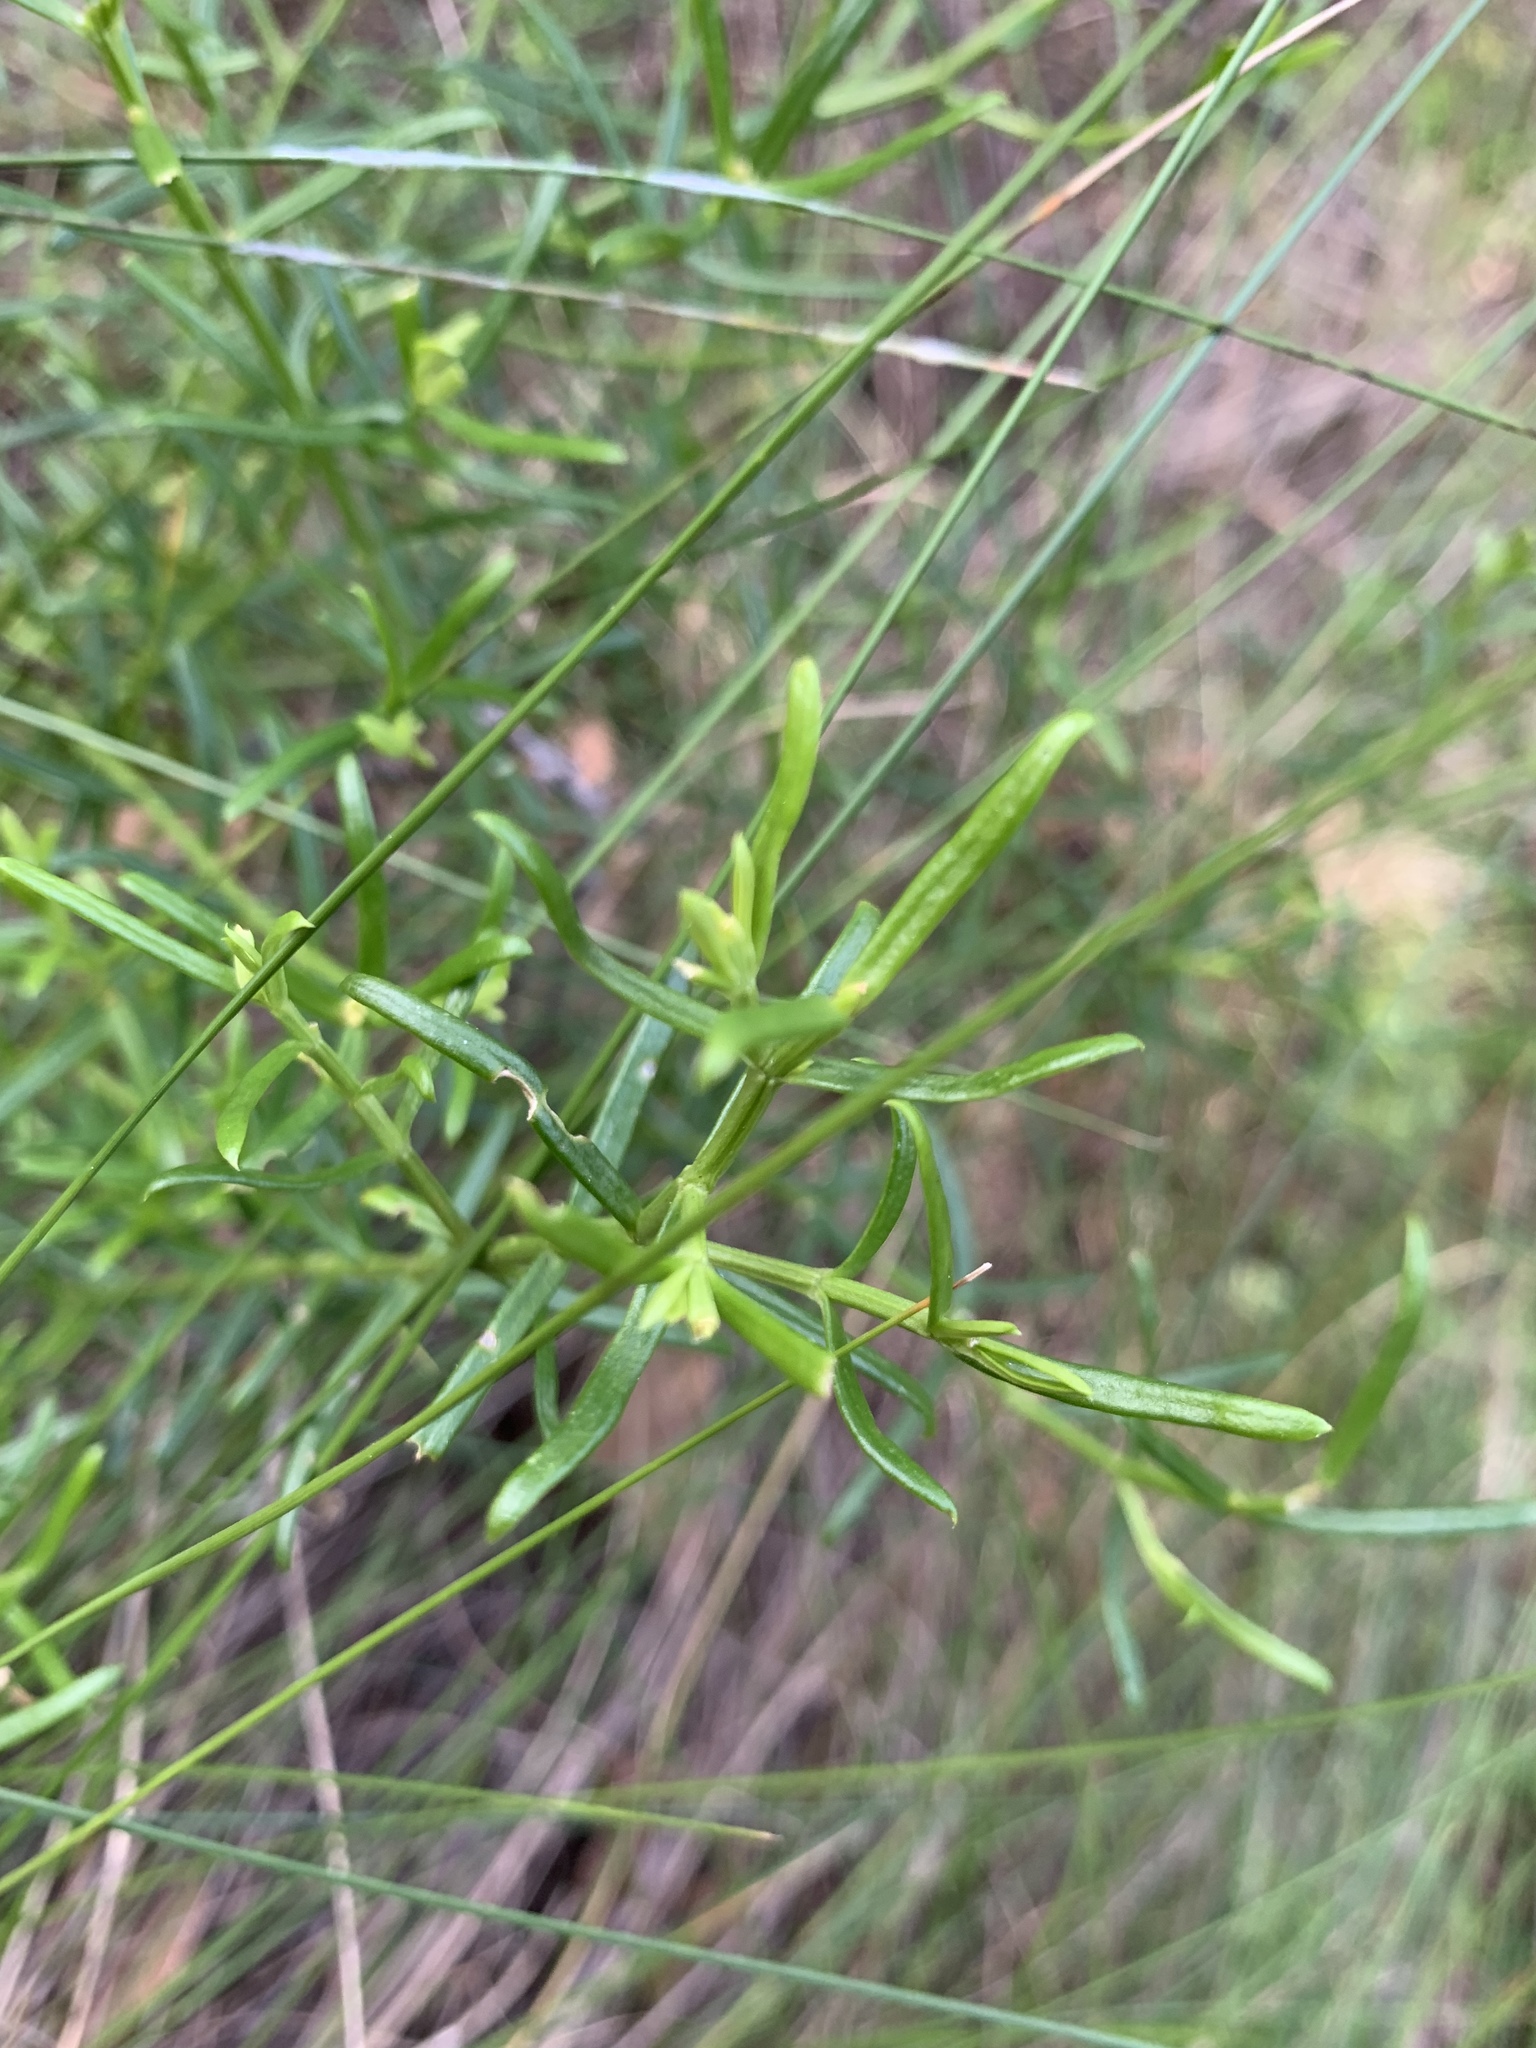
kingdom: Plantae
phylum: Tracheophyta
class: Magnoliopsida
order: Gentianales
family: Gentianaceae
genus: Chironia
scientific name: Chironia baccifera
